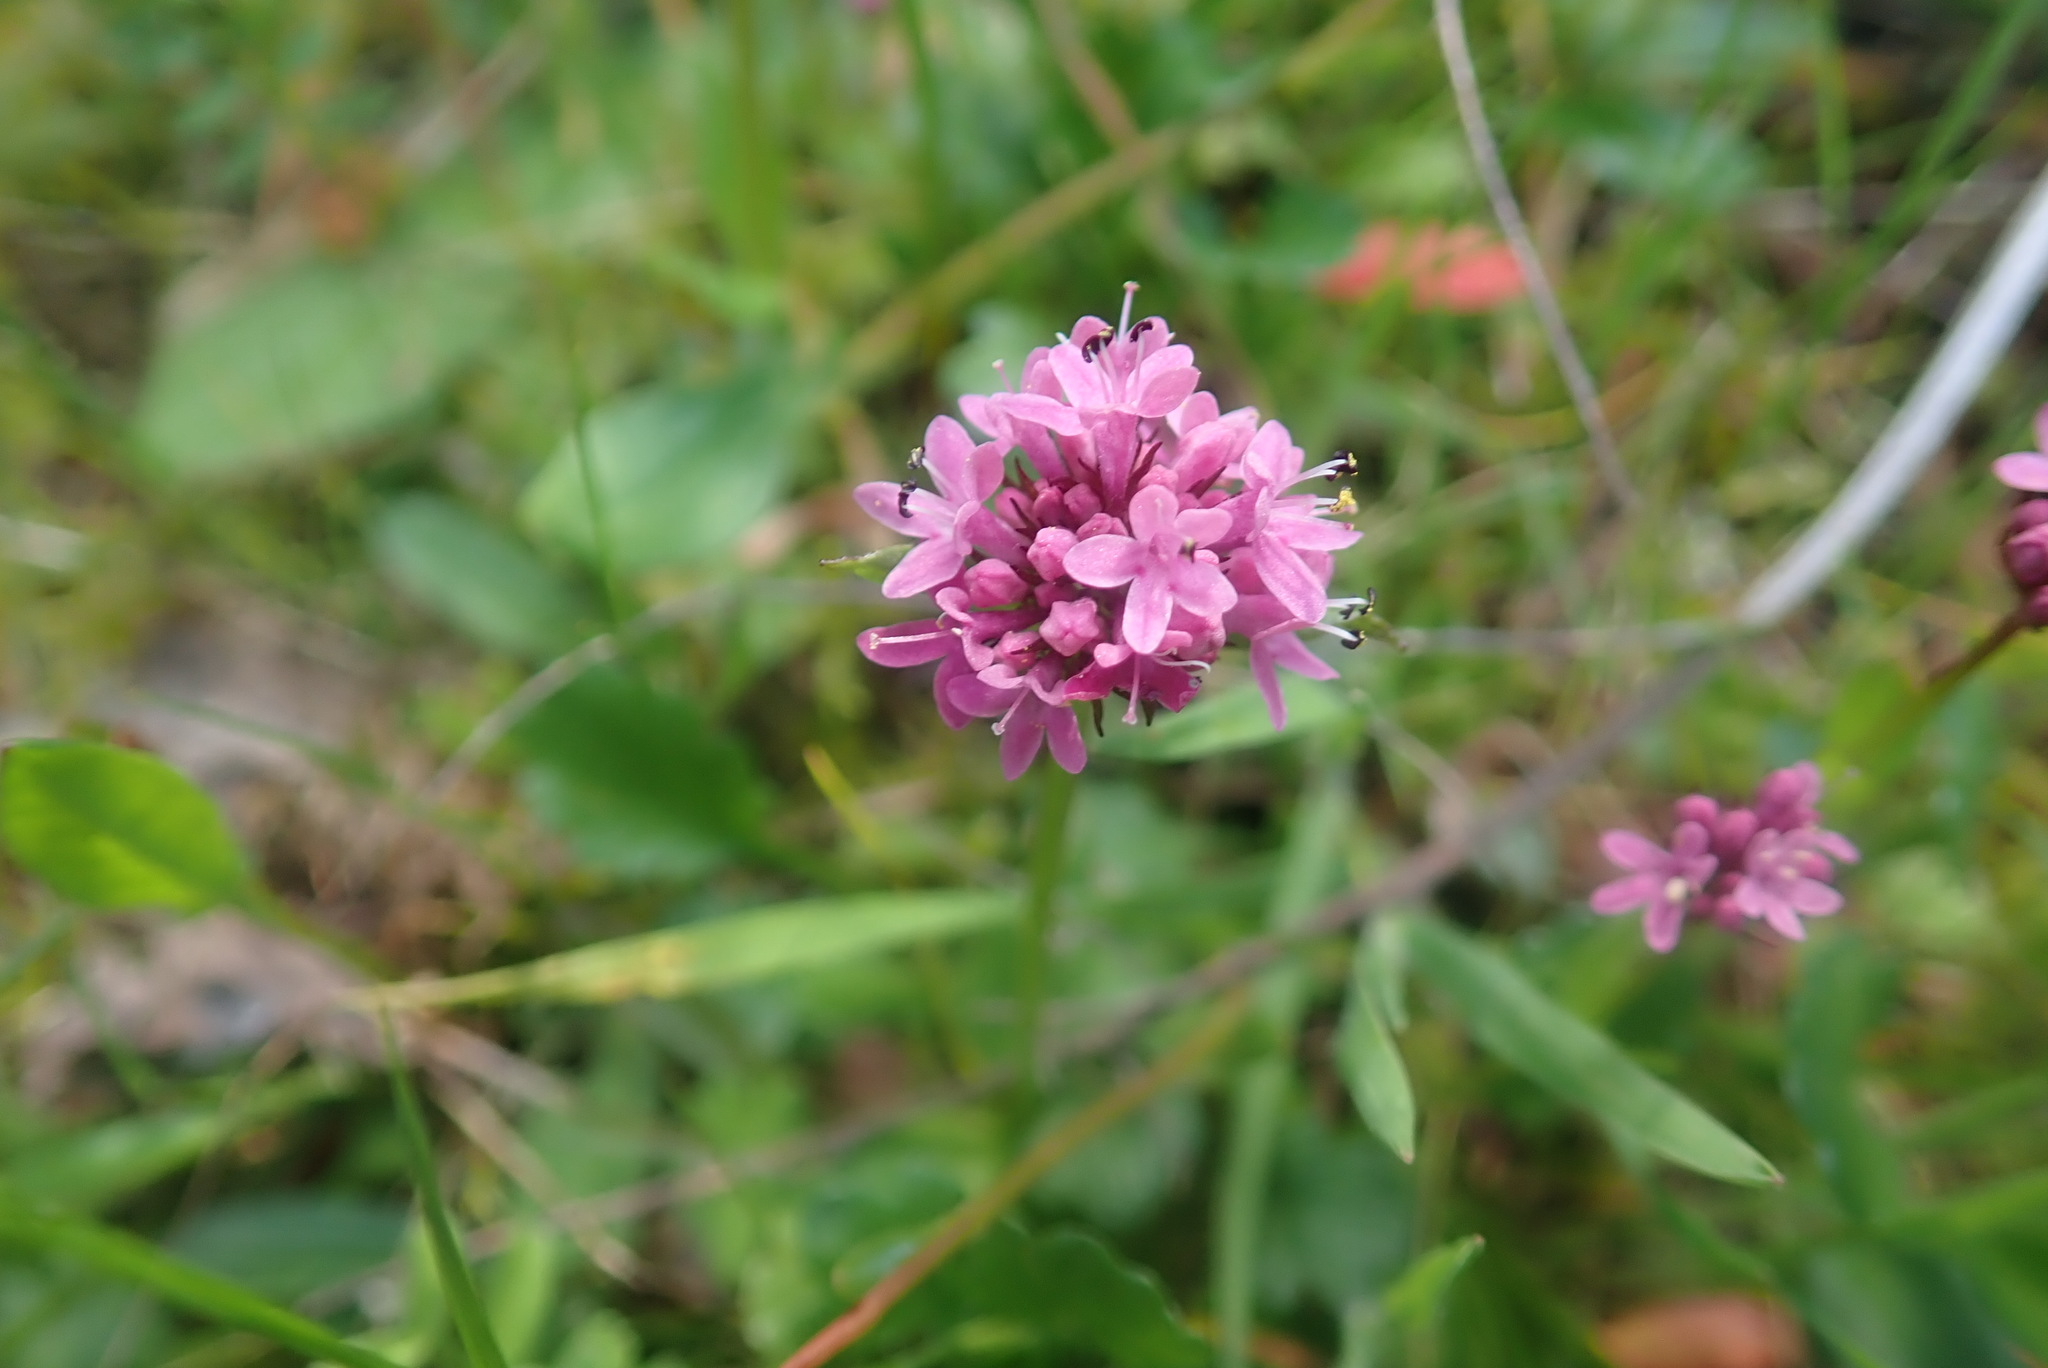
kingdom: Plantae
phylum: Tracheophyta
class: Magnoliopsida
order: Dipsacales
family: Caprifoliaceae
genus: Plectritis
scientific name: Plectritis congesta
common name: Pink plectritis
